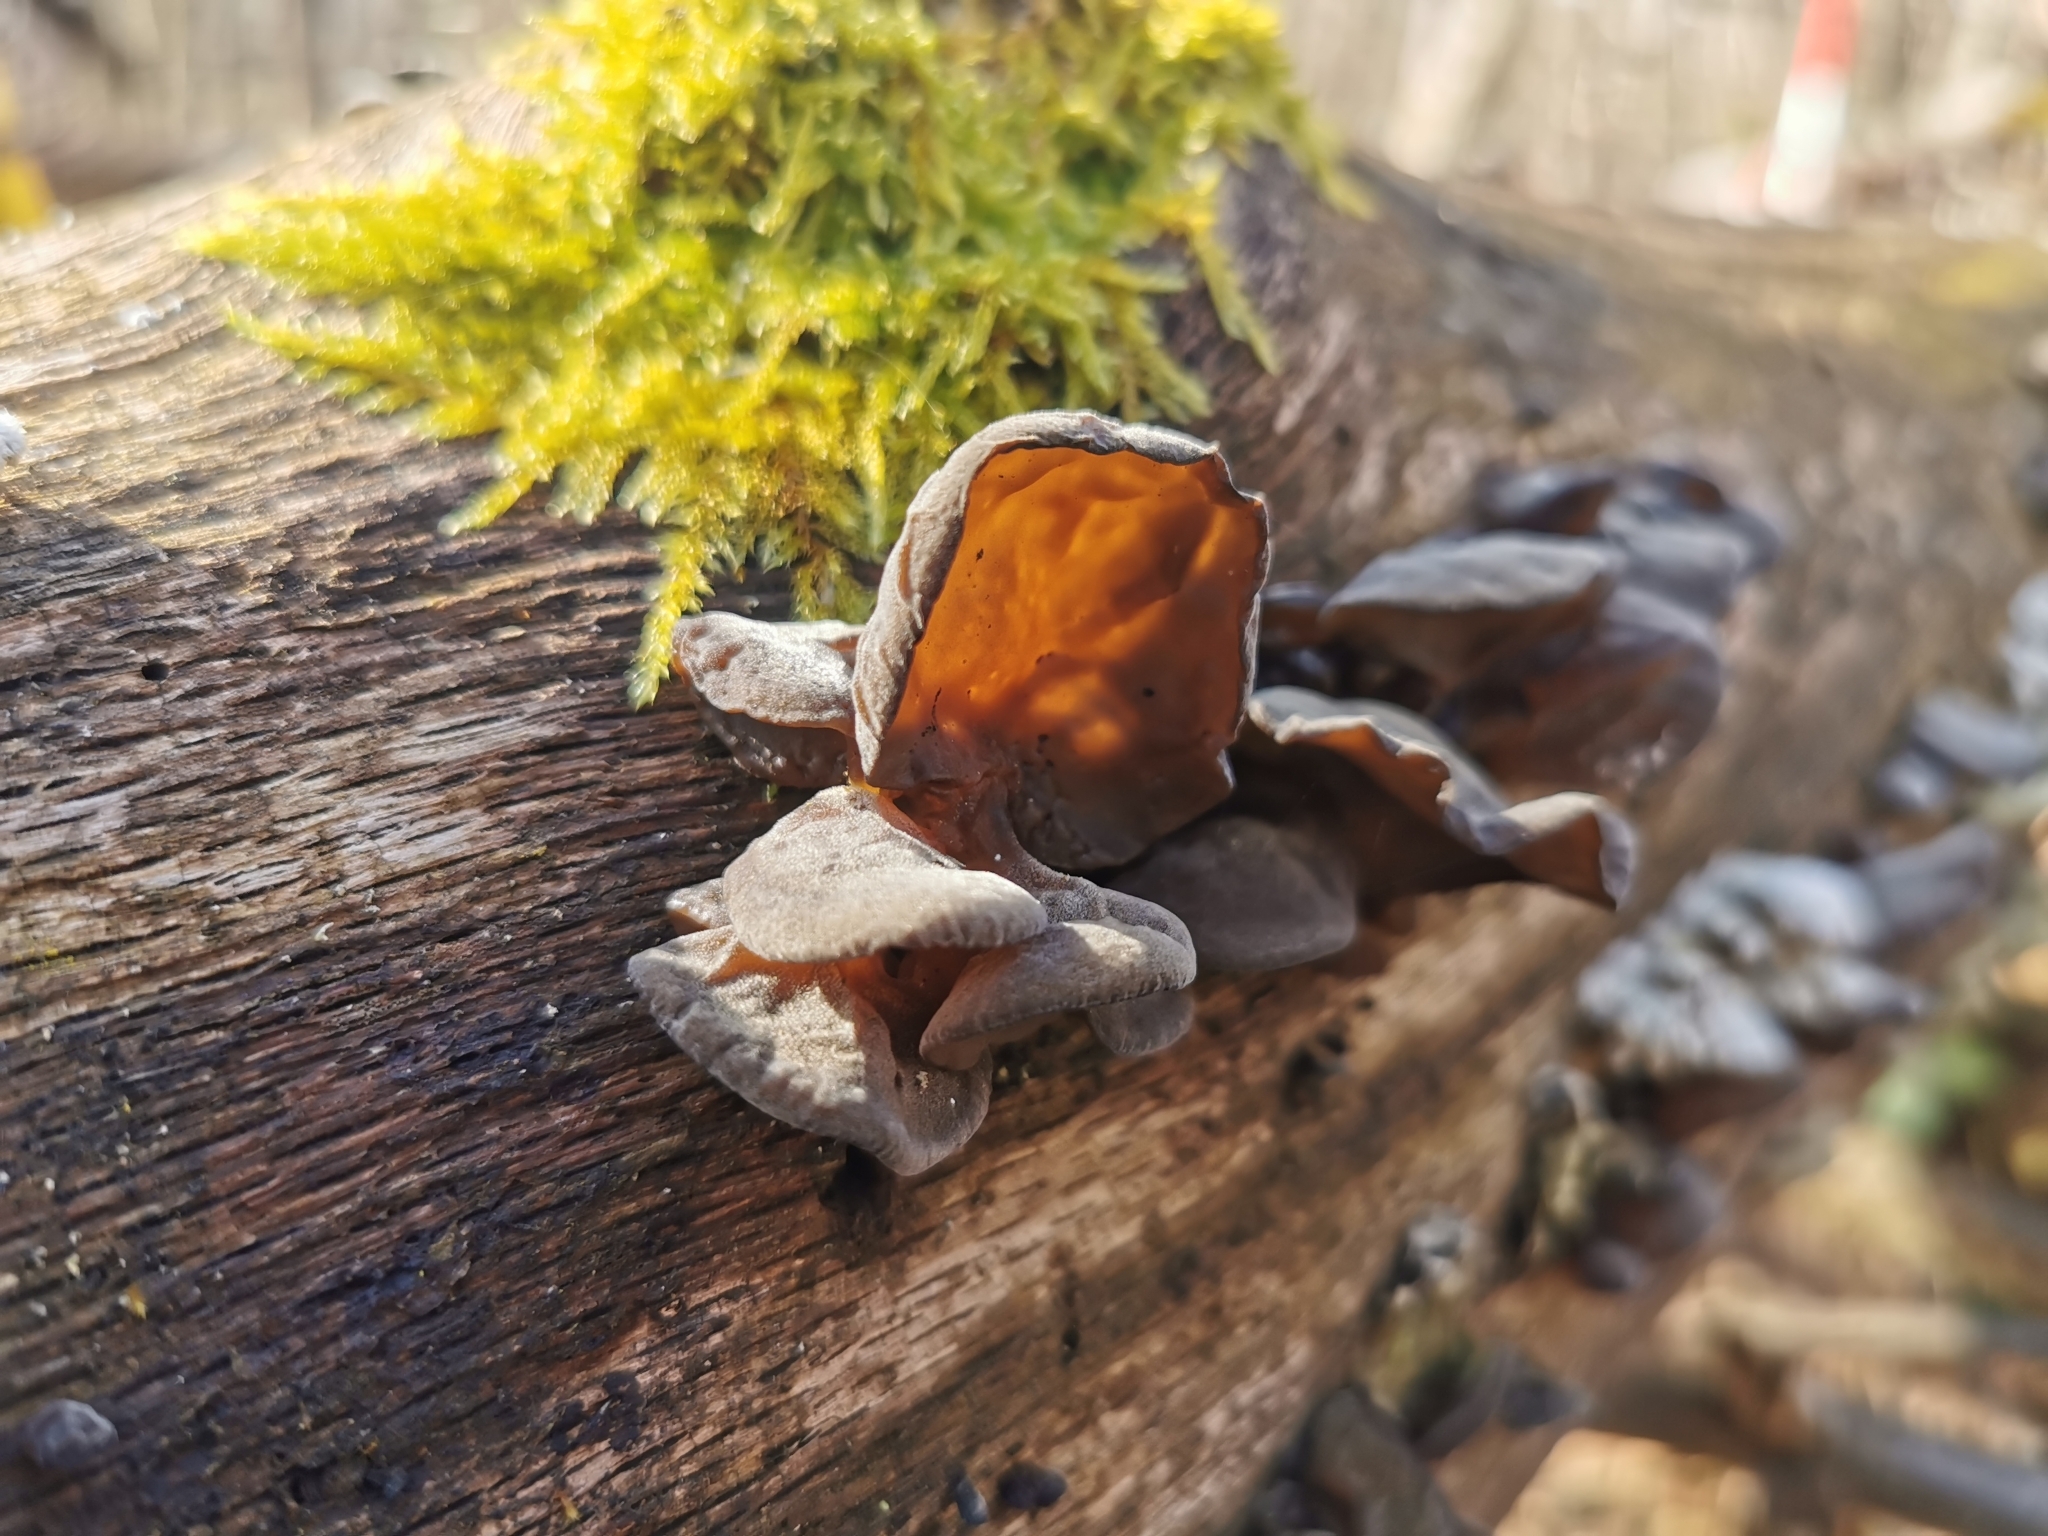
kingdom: Fungi
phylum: Basidiomycota
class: Agaricomycetes
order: Auriculariales
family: Auriculariaceae
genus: Auricularia
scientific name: Auricularia auricula-judae
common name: Jelly ear
